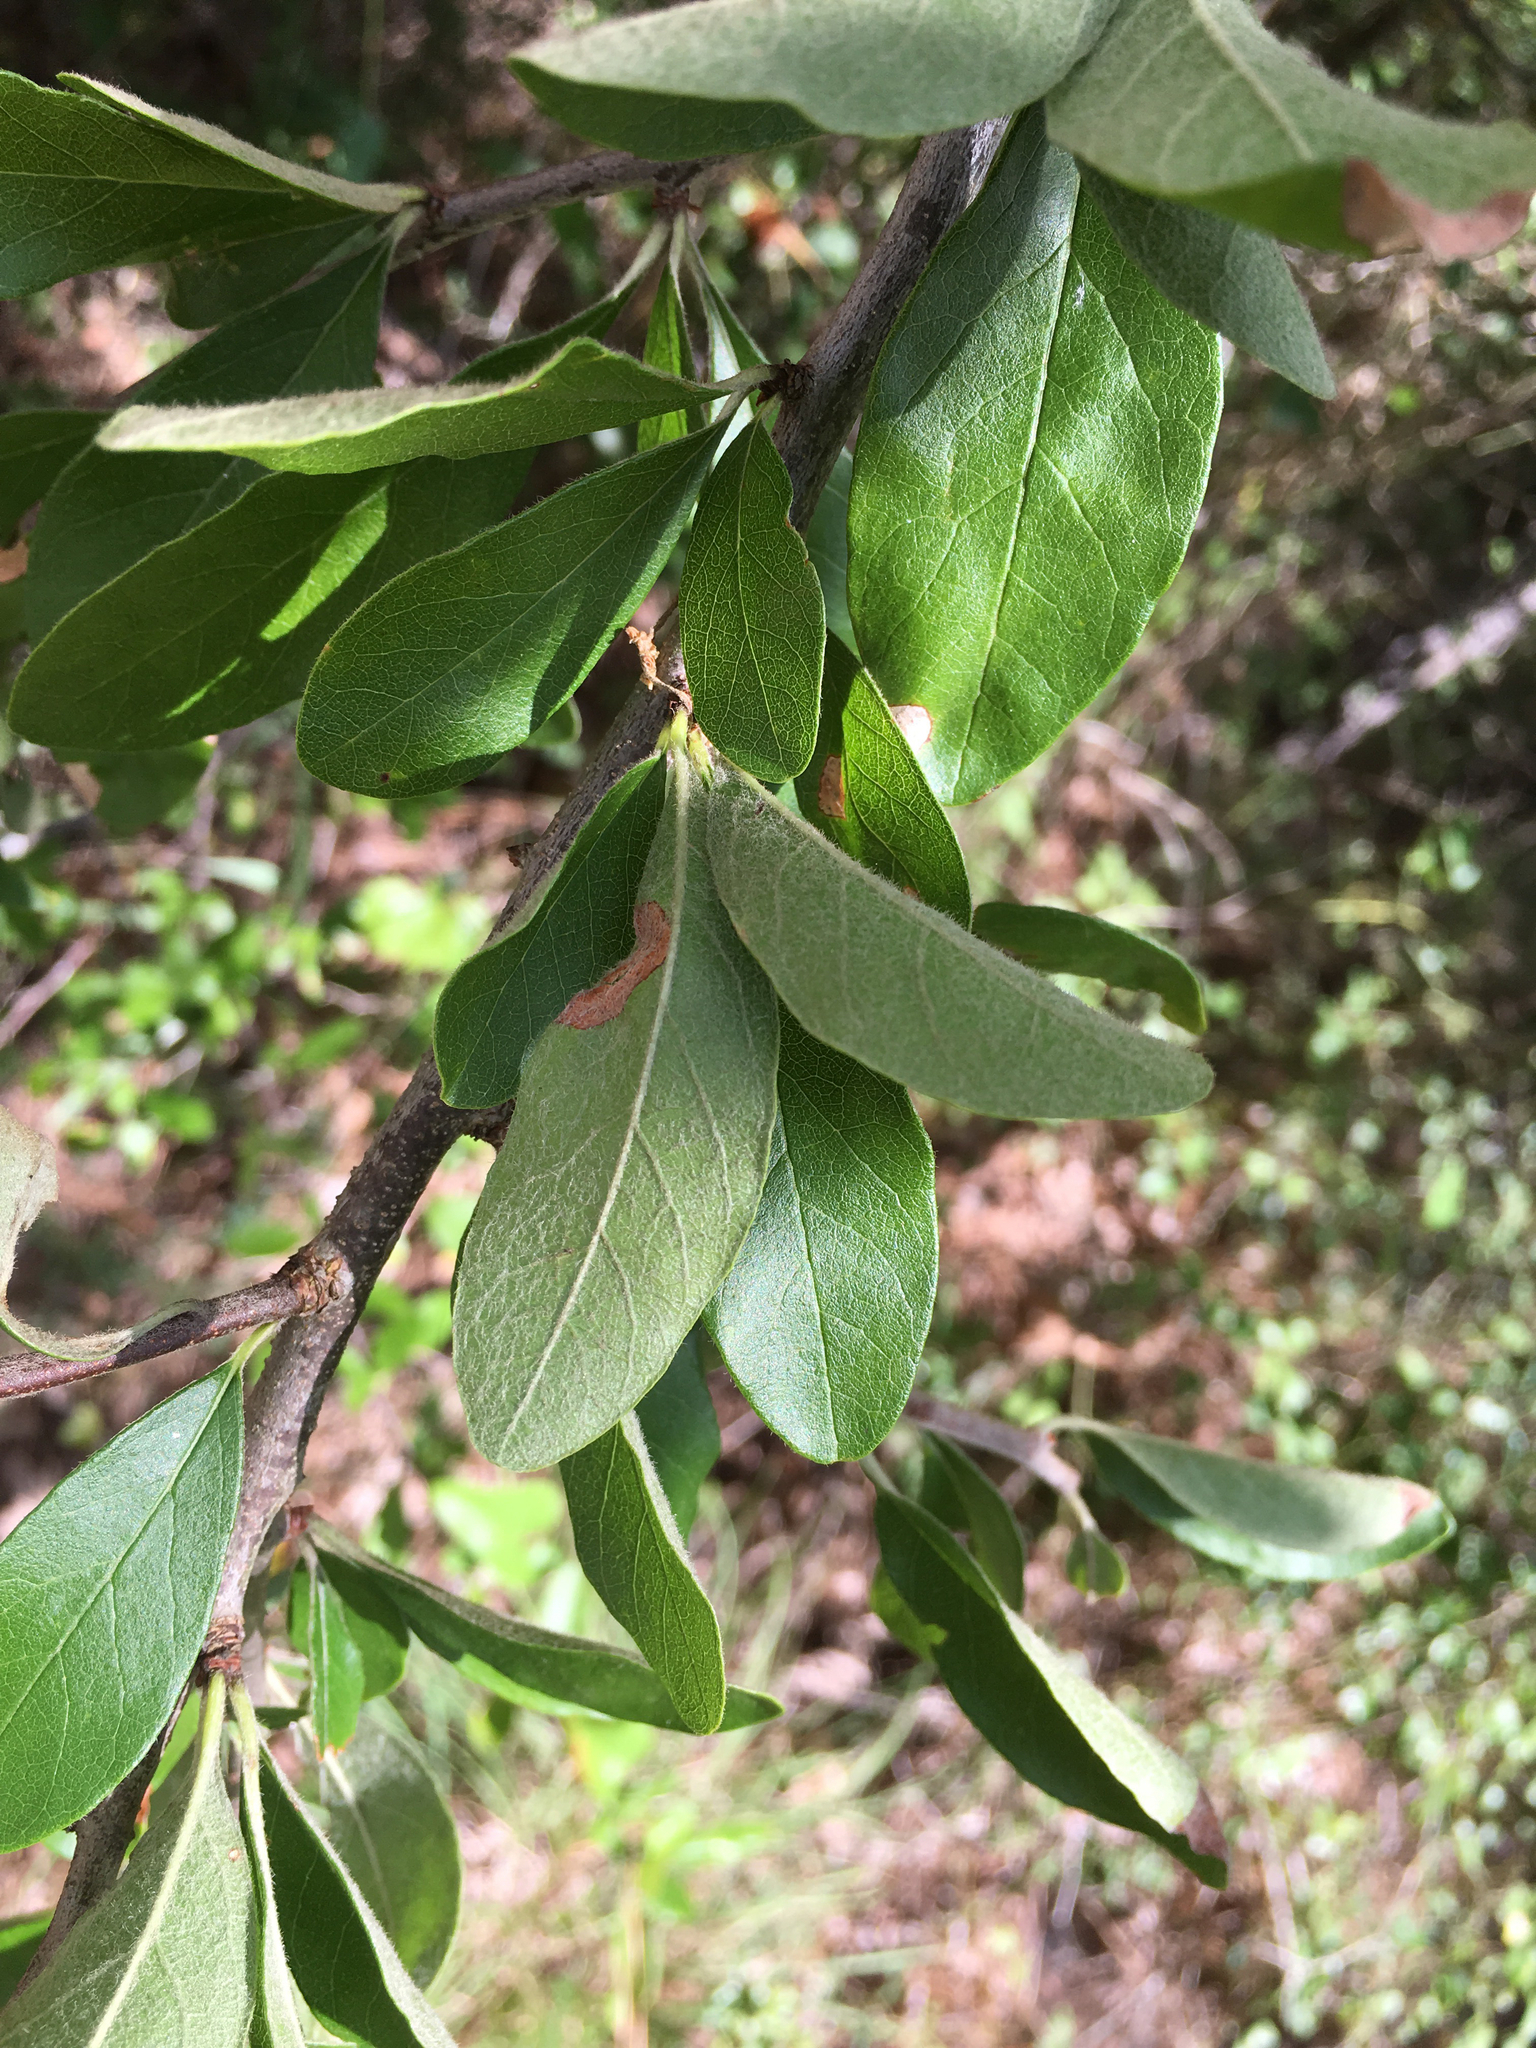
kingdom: Plantae
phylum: Tracheophyta
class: Magnoliopsida
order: Ericales
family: Sapotaceae
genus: Sideroxylon
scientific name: Sideroxylon lanuginosum
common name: Chittamwood
